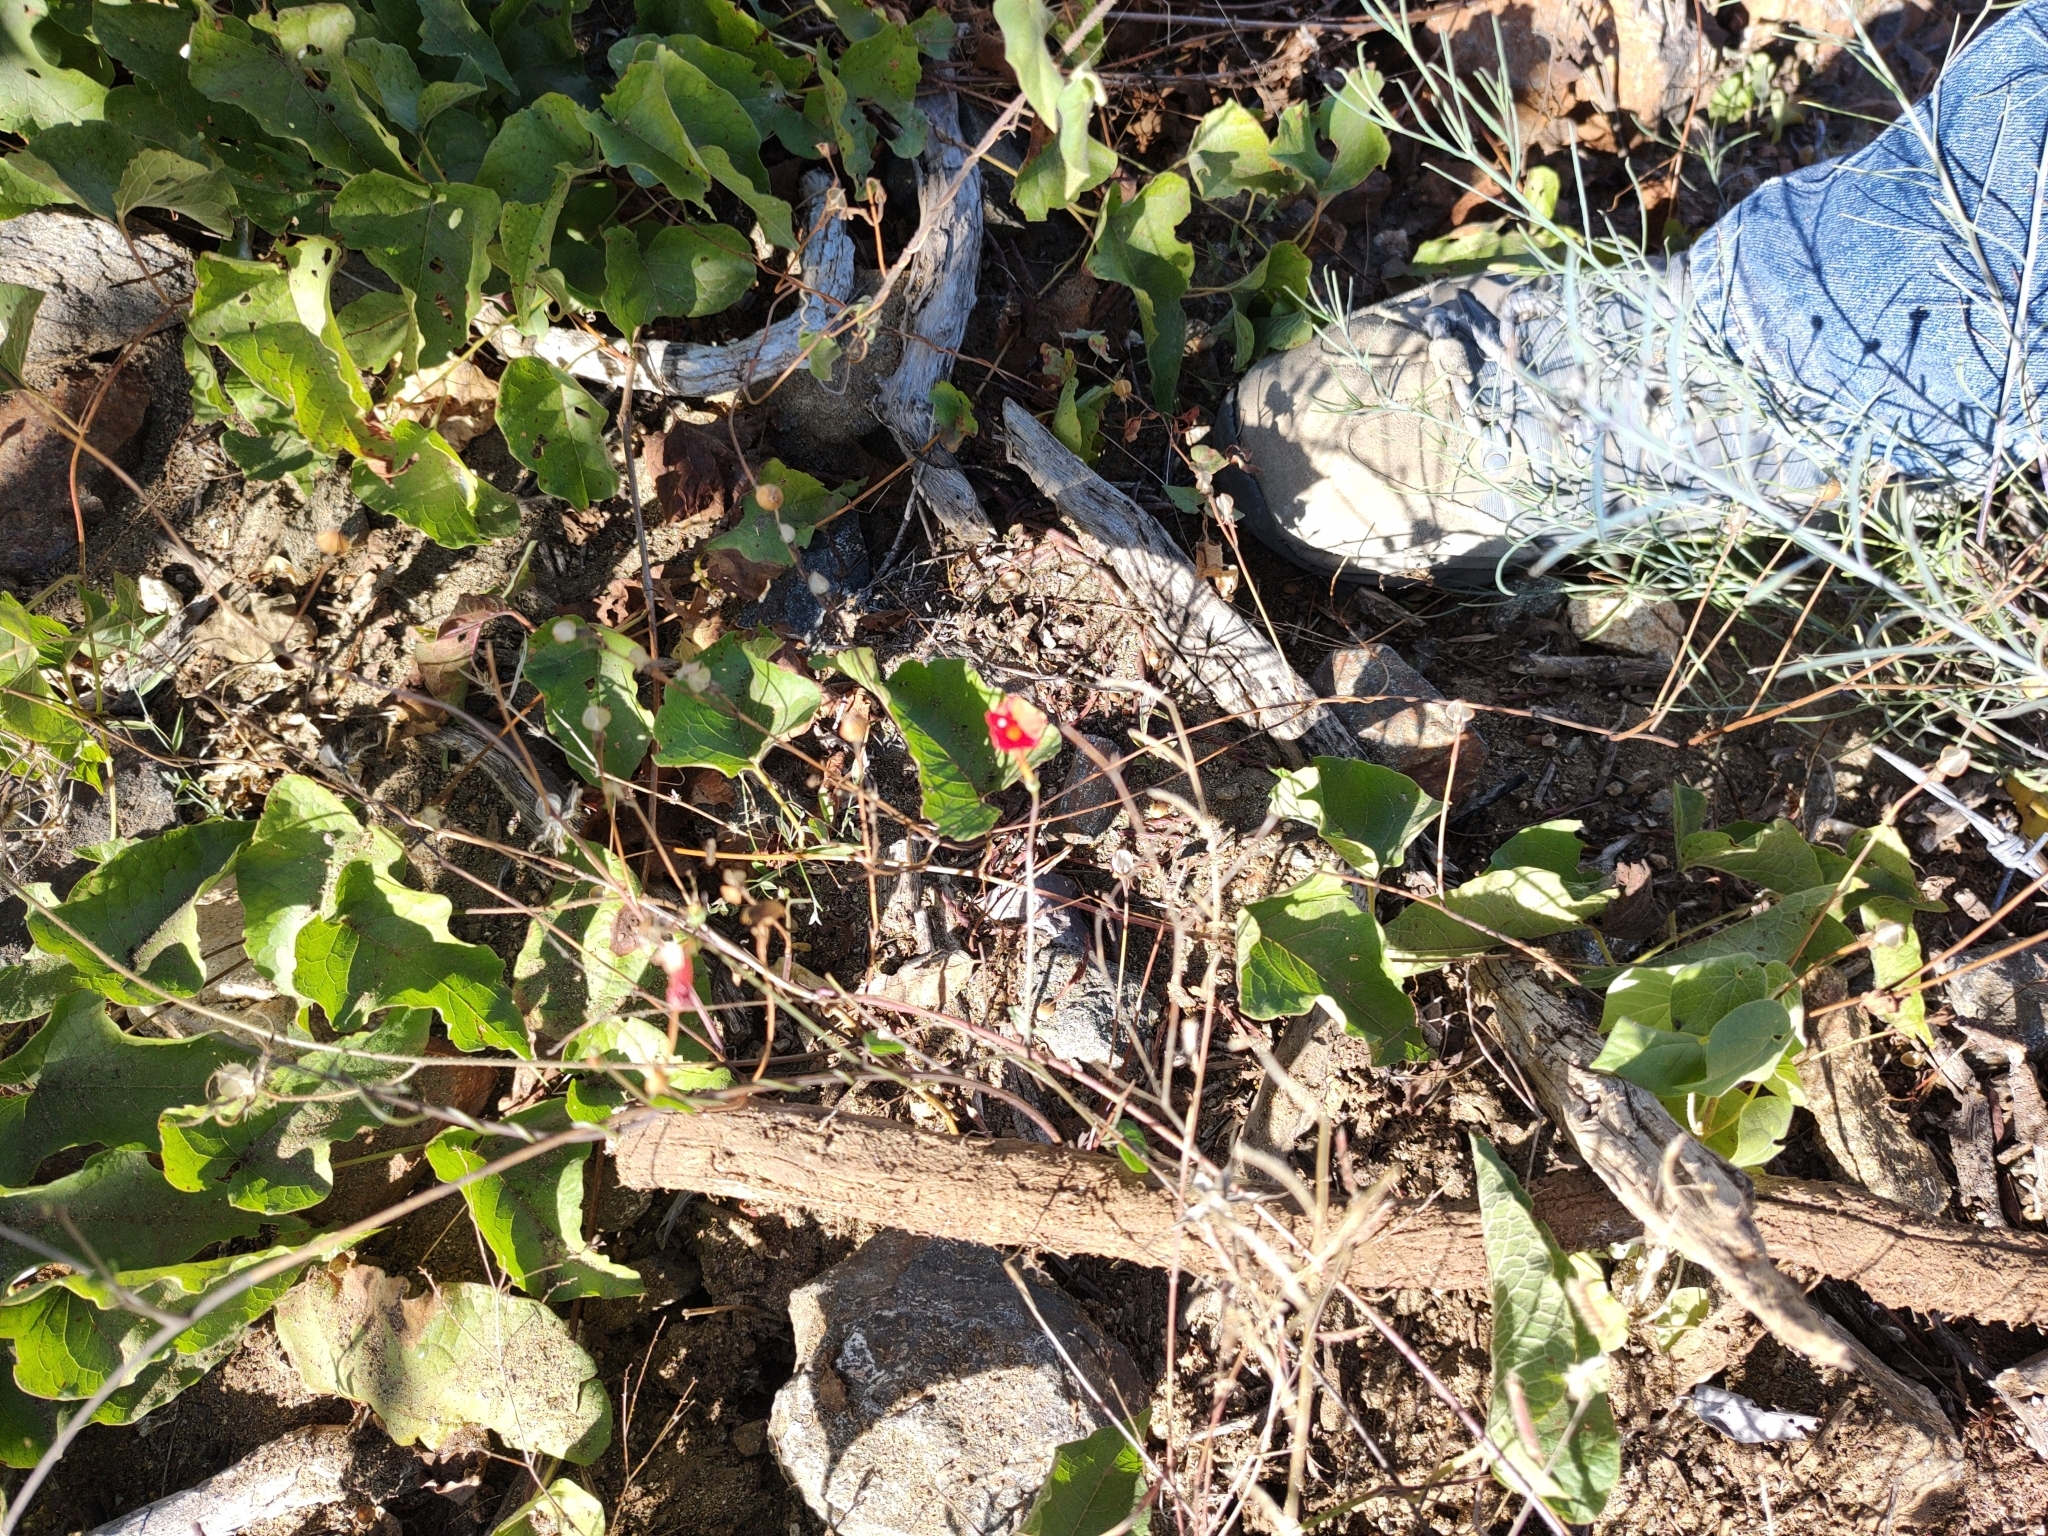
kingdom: Plantae
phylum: Tracheophyta
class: Magnoliopsida
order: Solanales
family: Convolvulaceae
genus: Ipomoea
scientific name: Ipomoea cristulata
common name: Trans-pecos morning-glory
